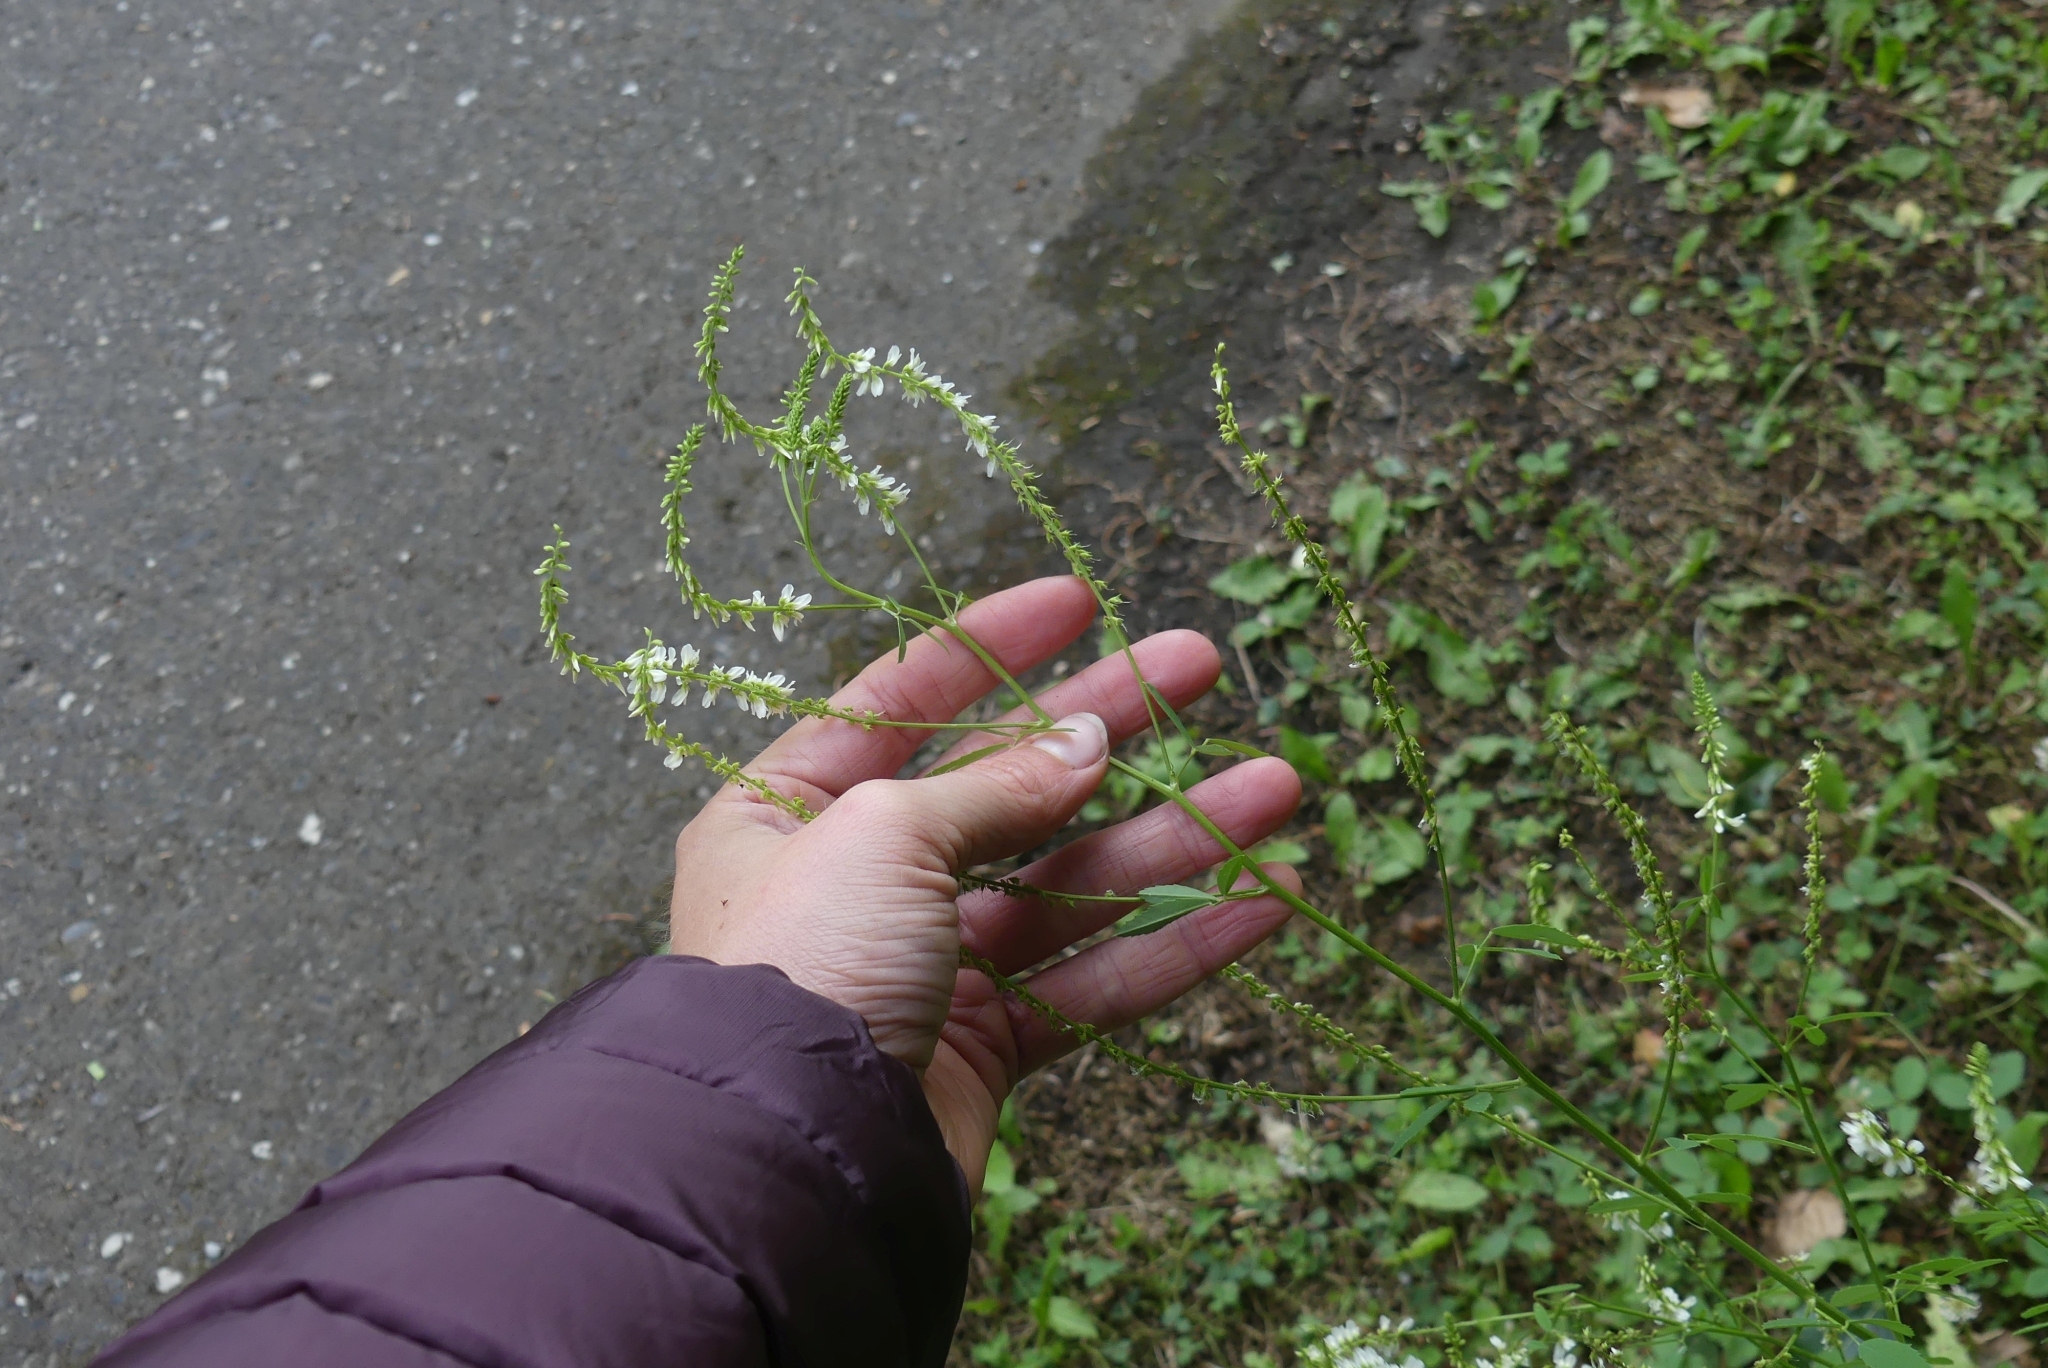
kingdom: Plantae
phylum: Tracheophyta
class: Magnoliopsida
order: Fabales
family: Fabaceae
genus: Melilotus
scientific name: Melilotus albus
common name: White melilot
